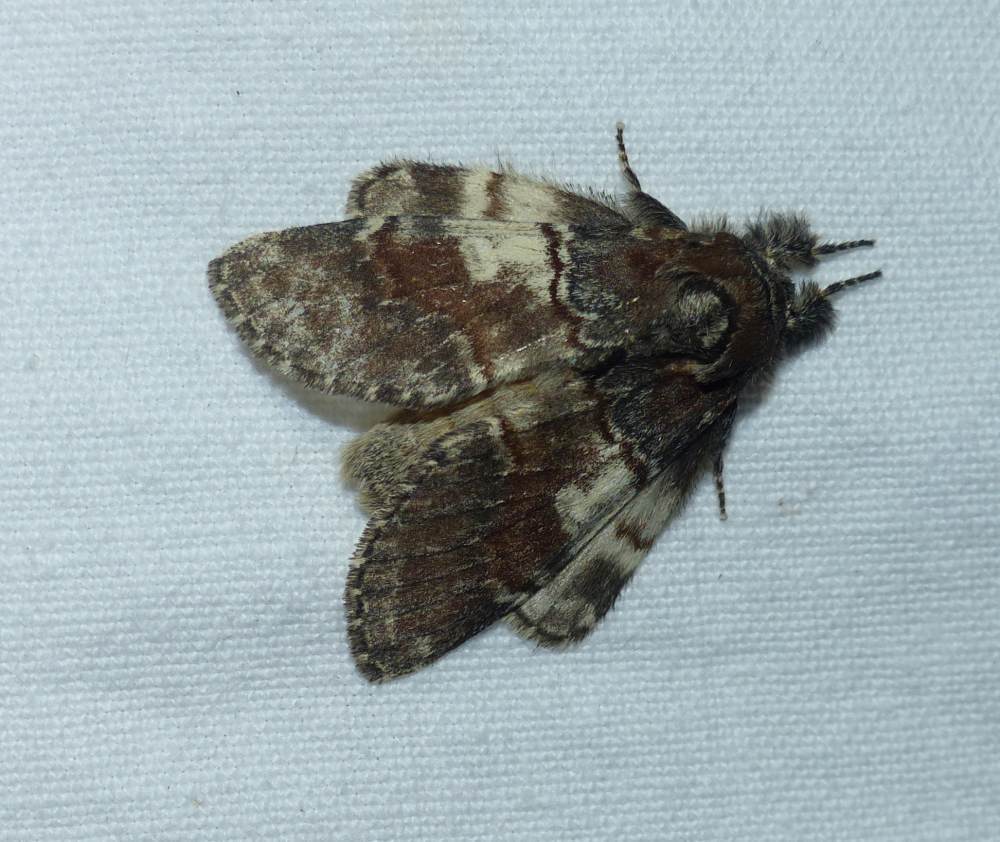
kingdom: Animalia
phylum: Arthropoda
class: Insecta
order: Lepidoptera
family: Notodontidae
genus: Peridea
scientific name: Peridea ferruginea
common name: Chocolate prominent
